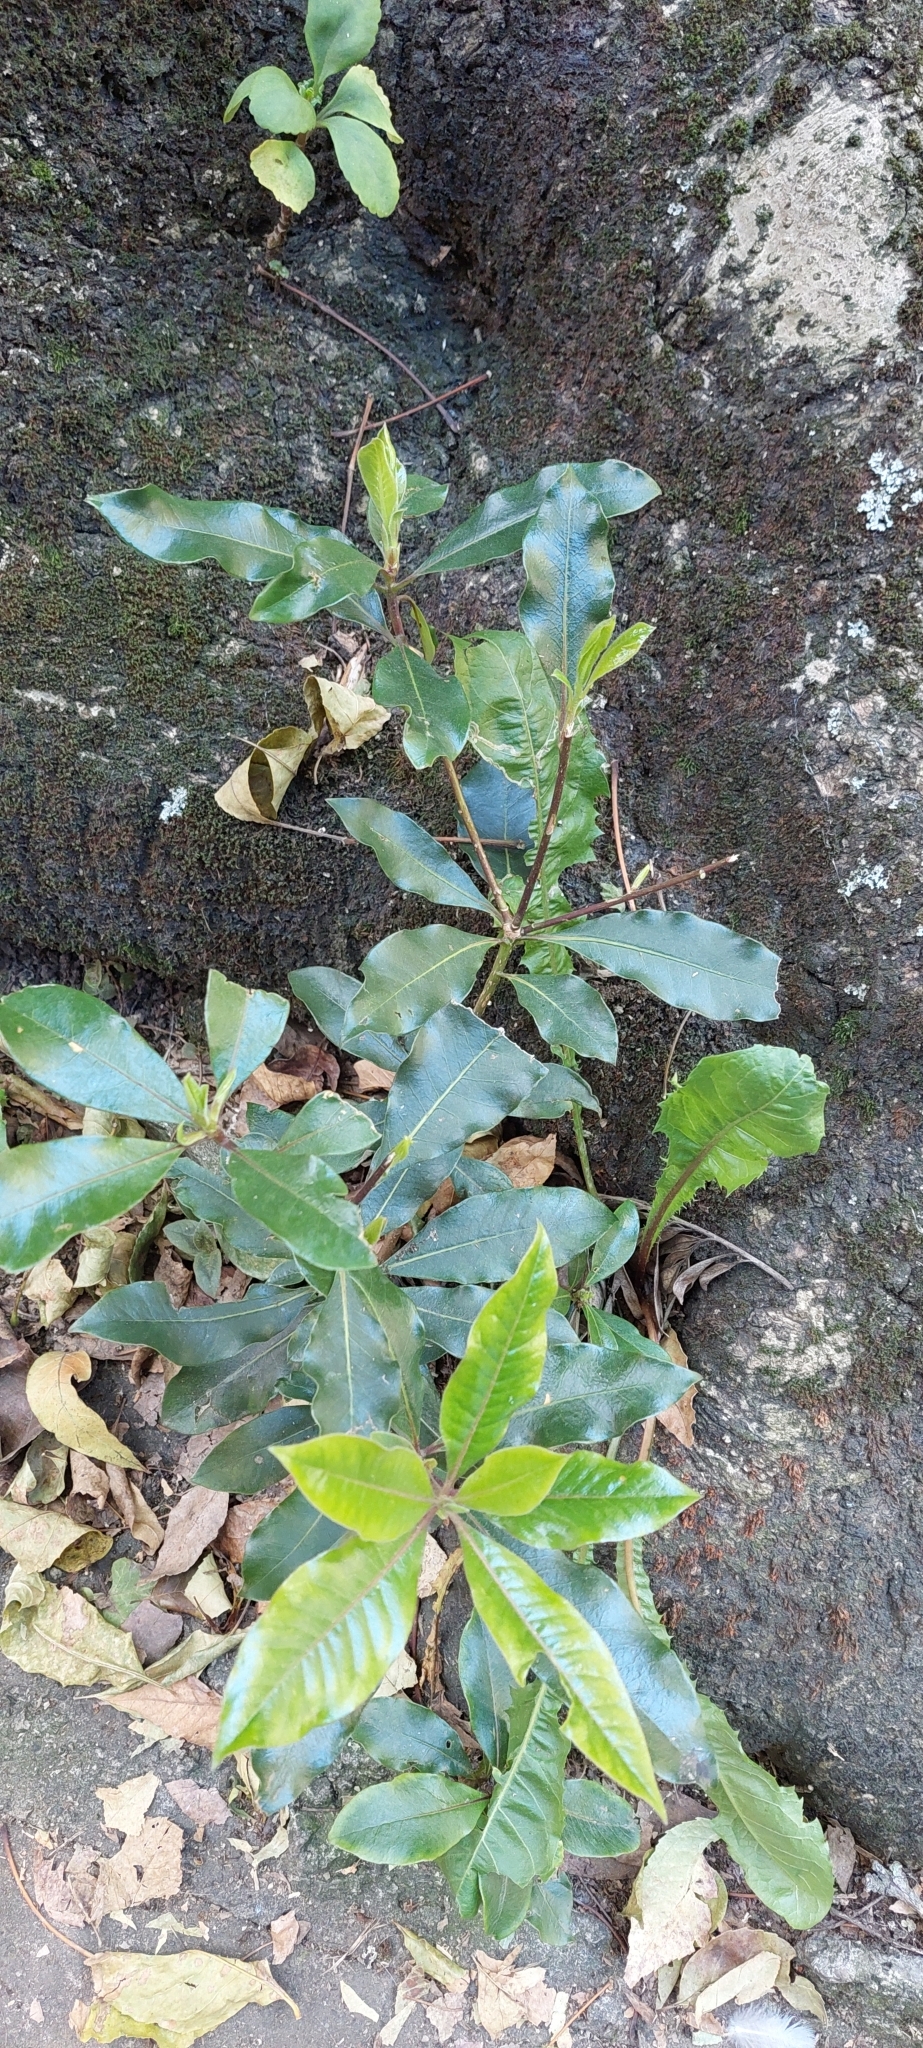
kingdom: Plantae
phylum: Tracheophyta
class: Magnoliopsida
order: Apiales
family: Pittosporaceae
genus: Pittosporum
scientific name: Pittosporum undulatum
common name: Australian cheesewood
